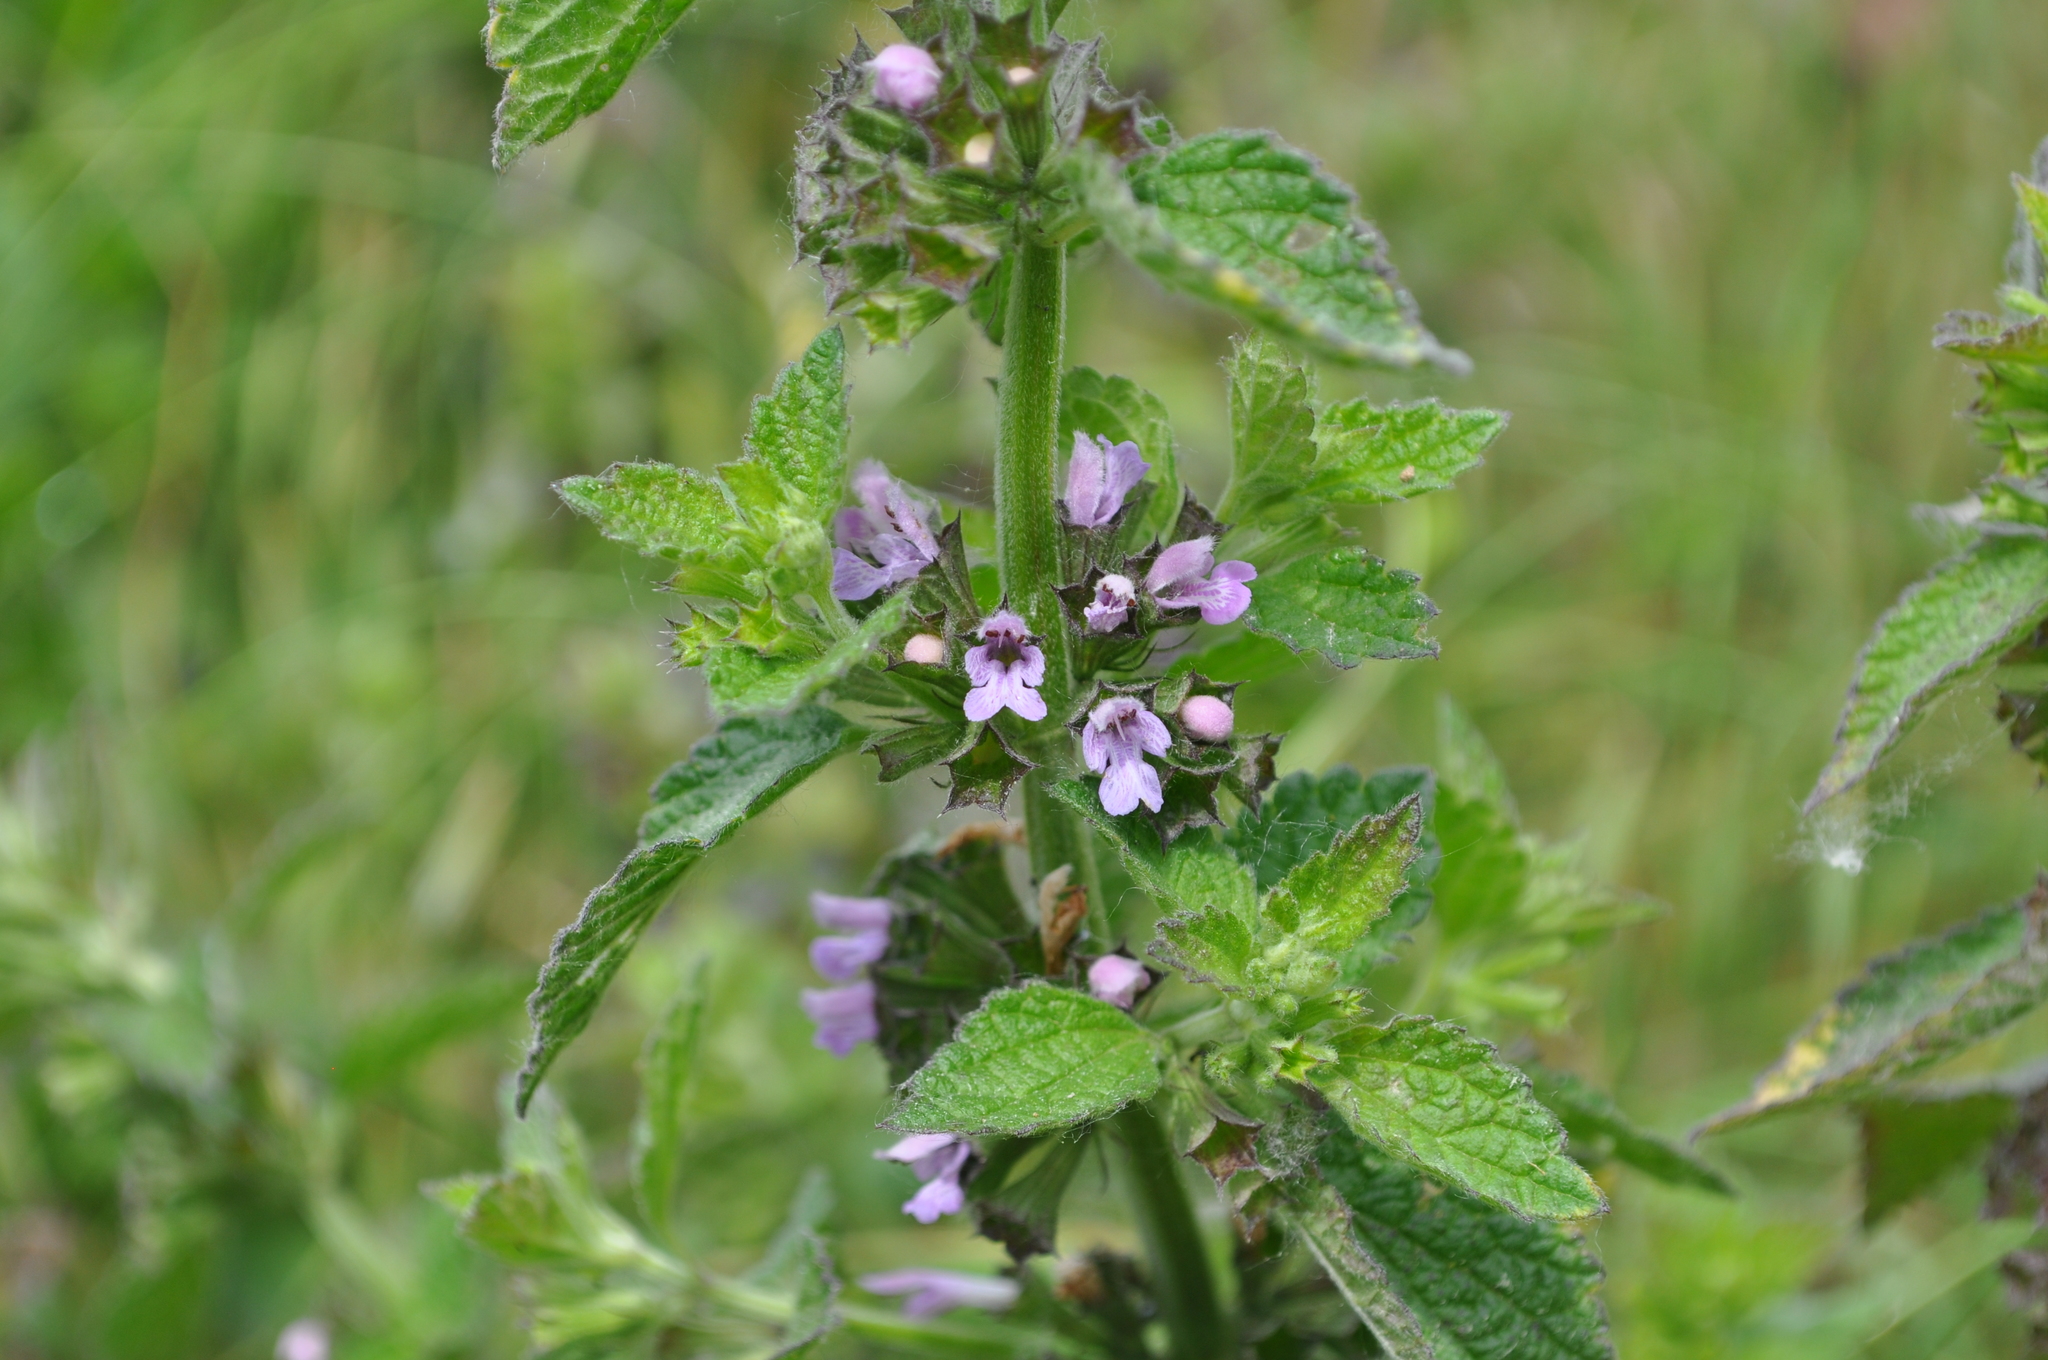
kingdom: Plantae
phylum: Tracheophyta
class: Magnoliopsida
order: Lamiales
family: Lamiaceae
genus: Ballota
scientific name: Ballota nigra
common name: Black horehound
